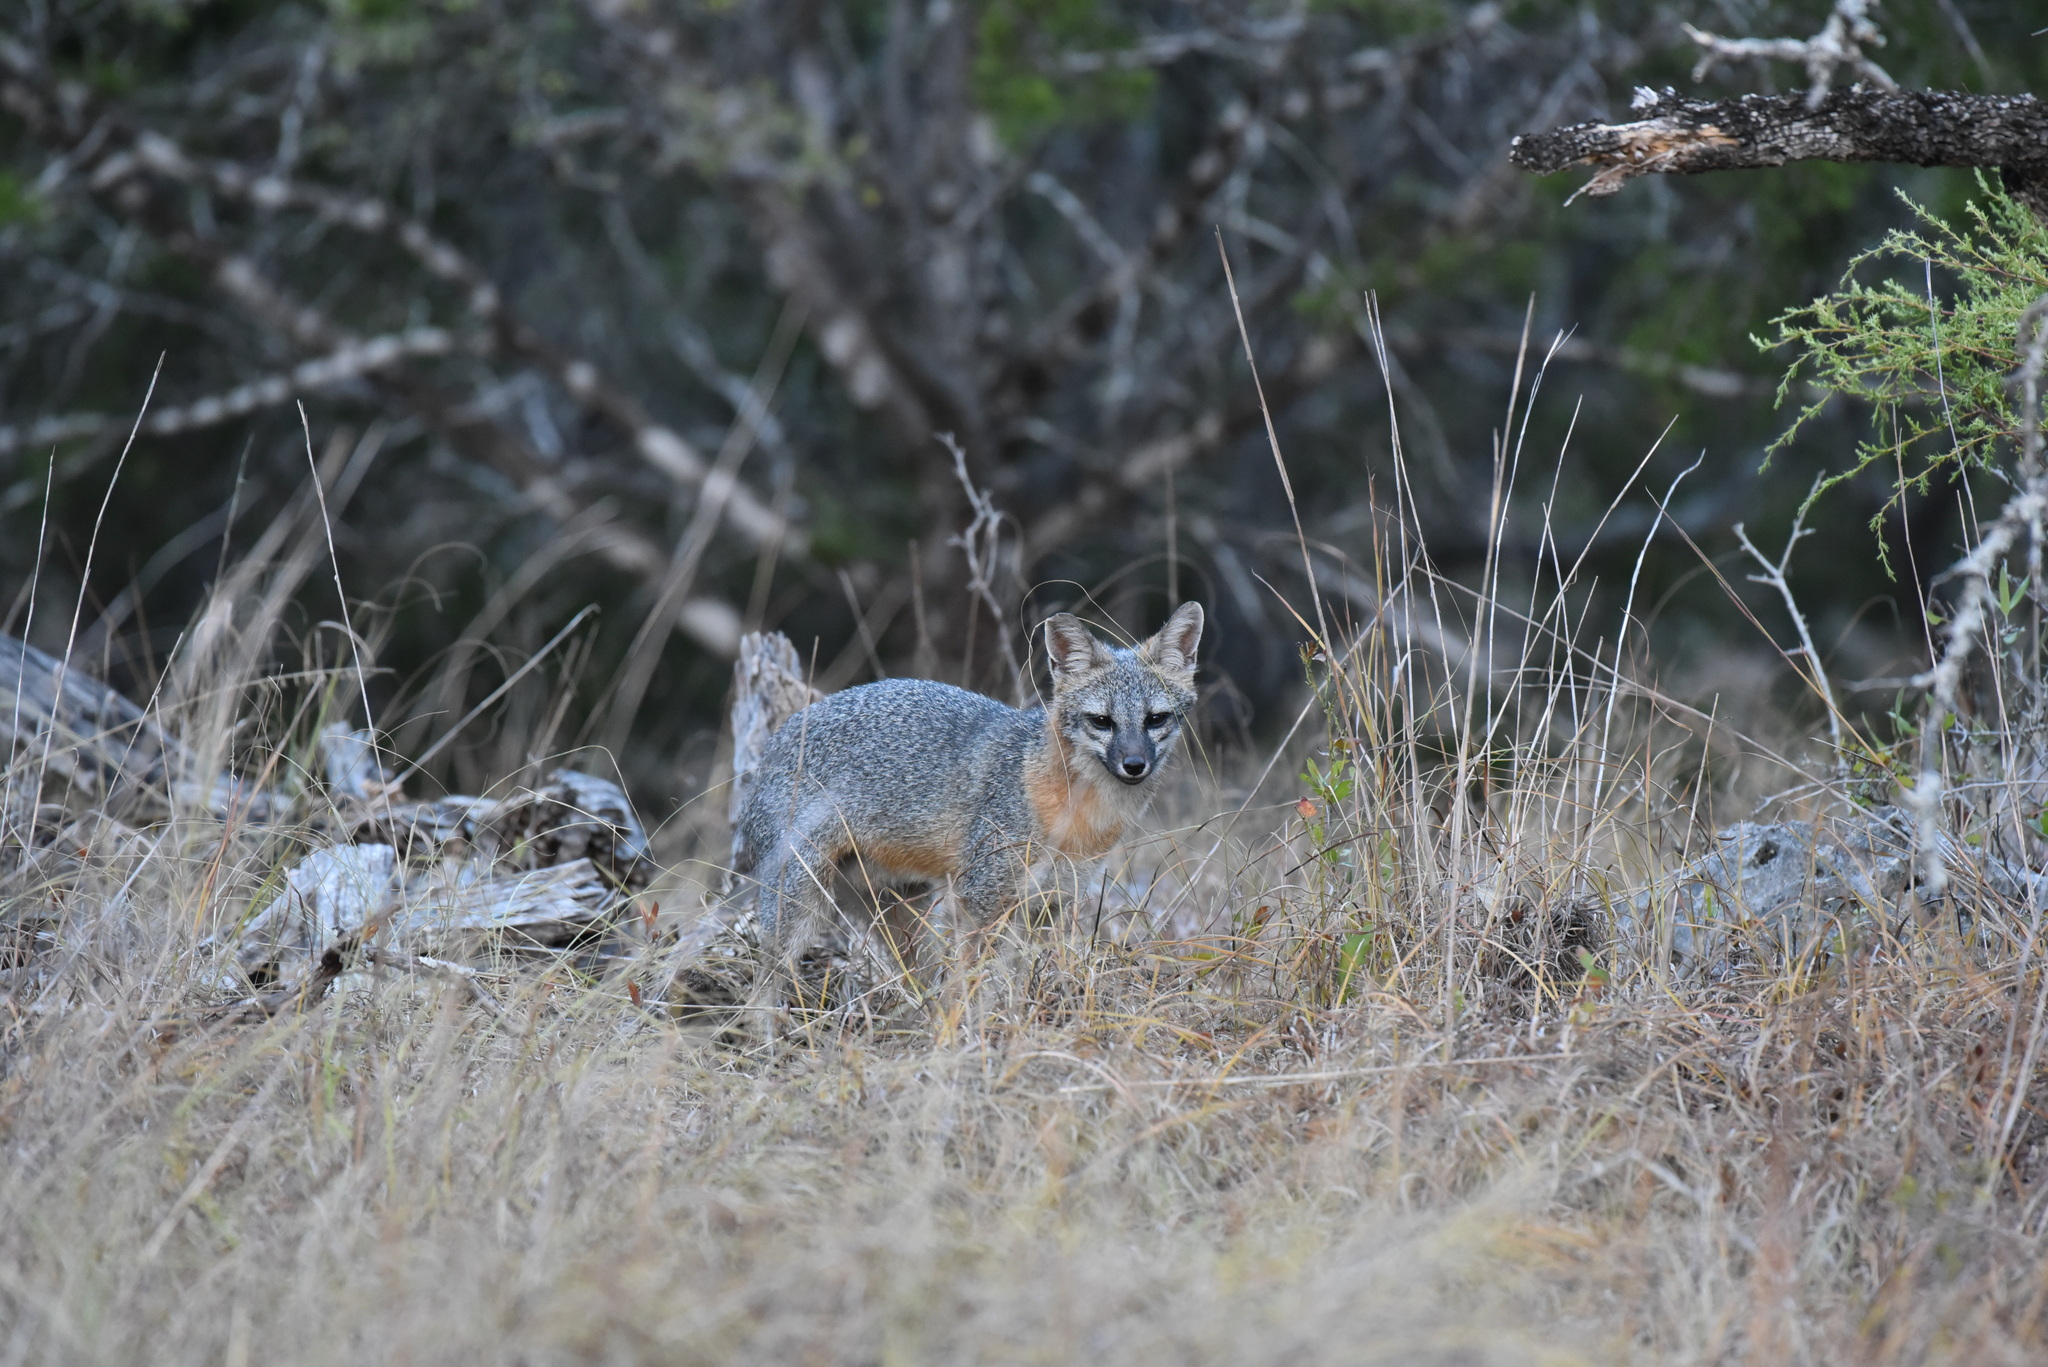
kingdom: Animalia
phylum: Chordata
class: Mammalia
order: Carnivora
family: Canidae
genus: Urocyon
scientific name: Urocyon cinereoargenteus
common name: Gray fox
